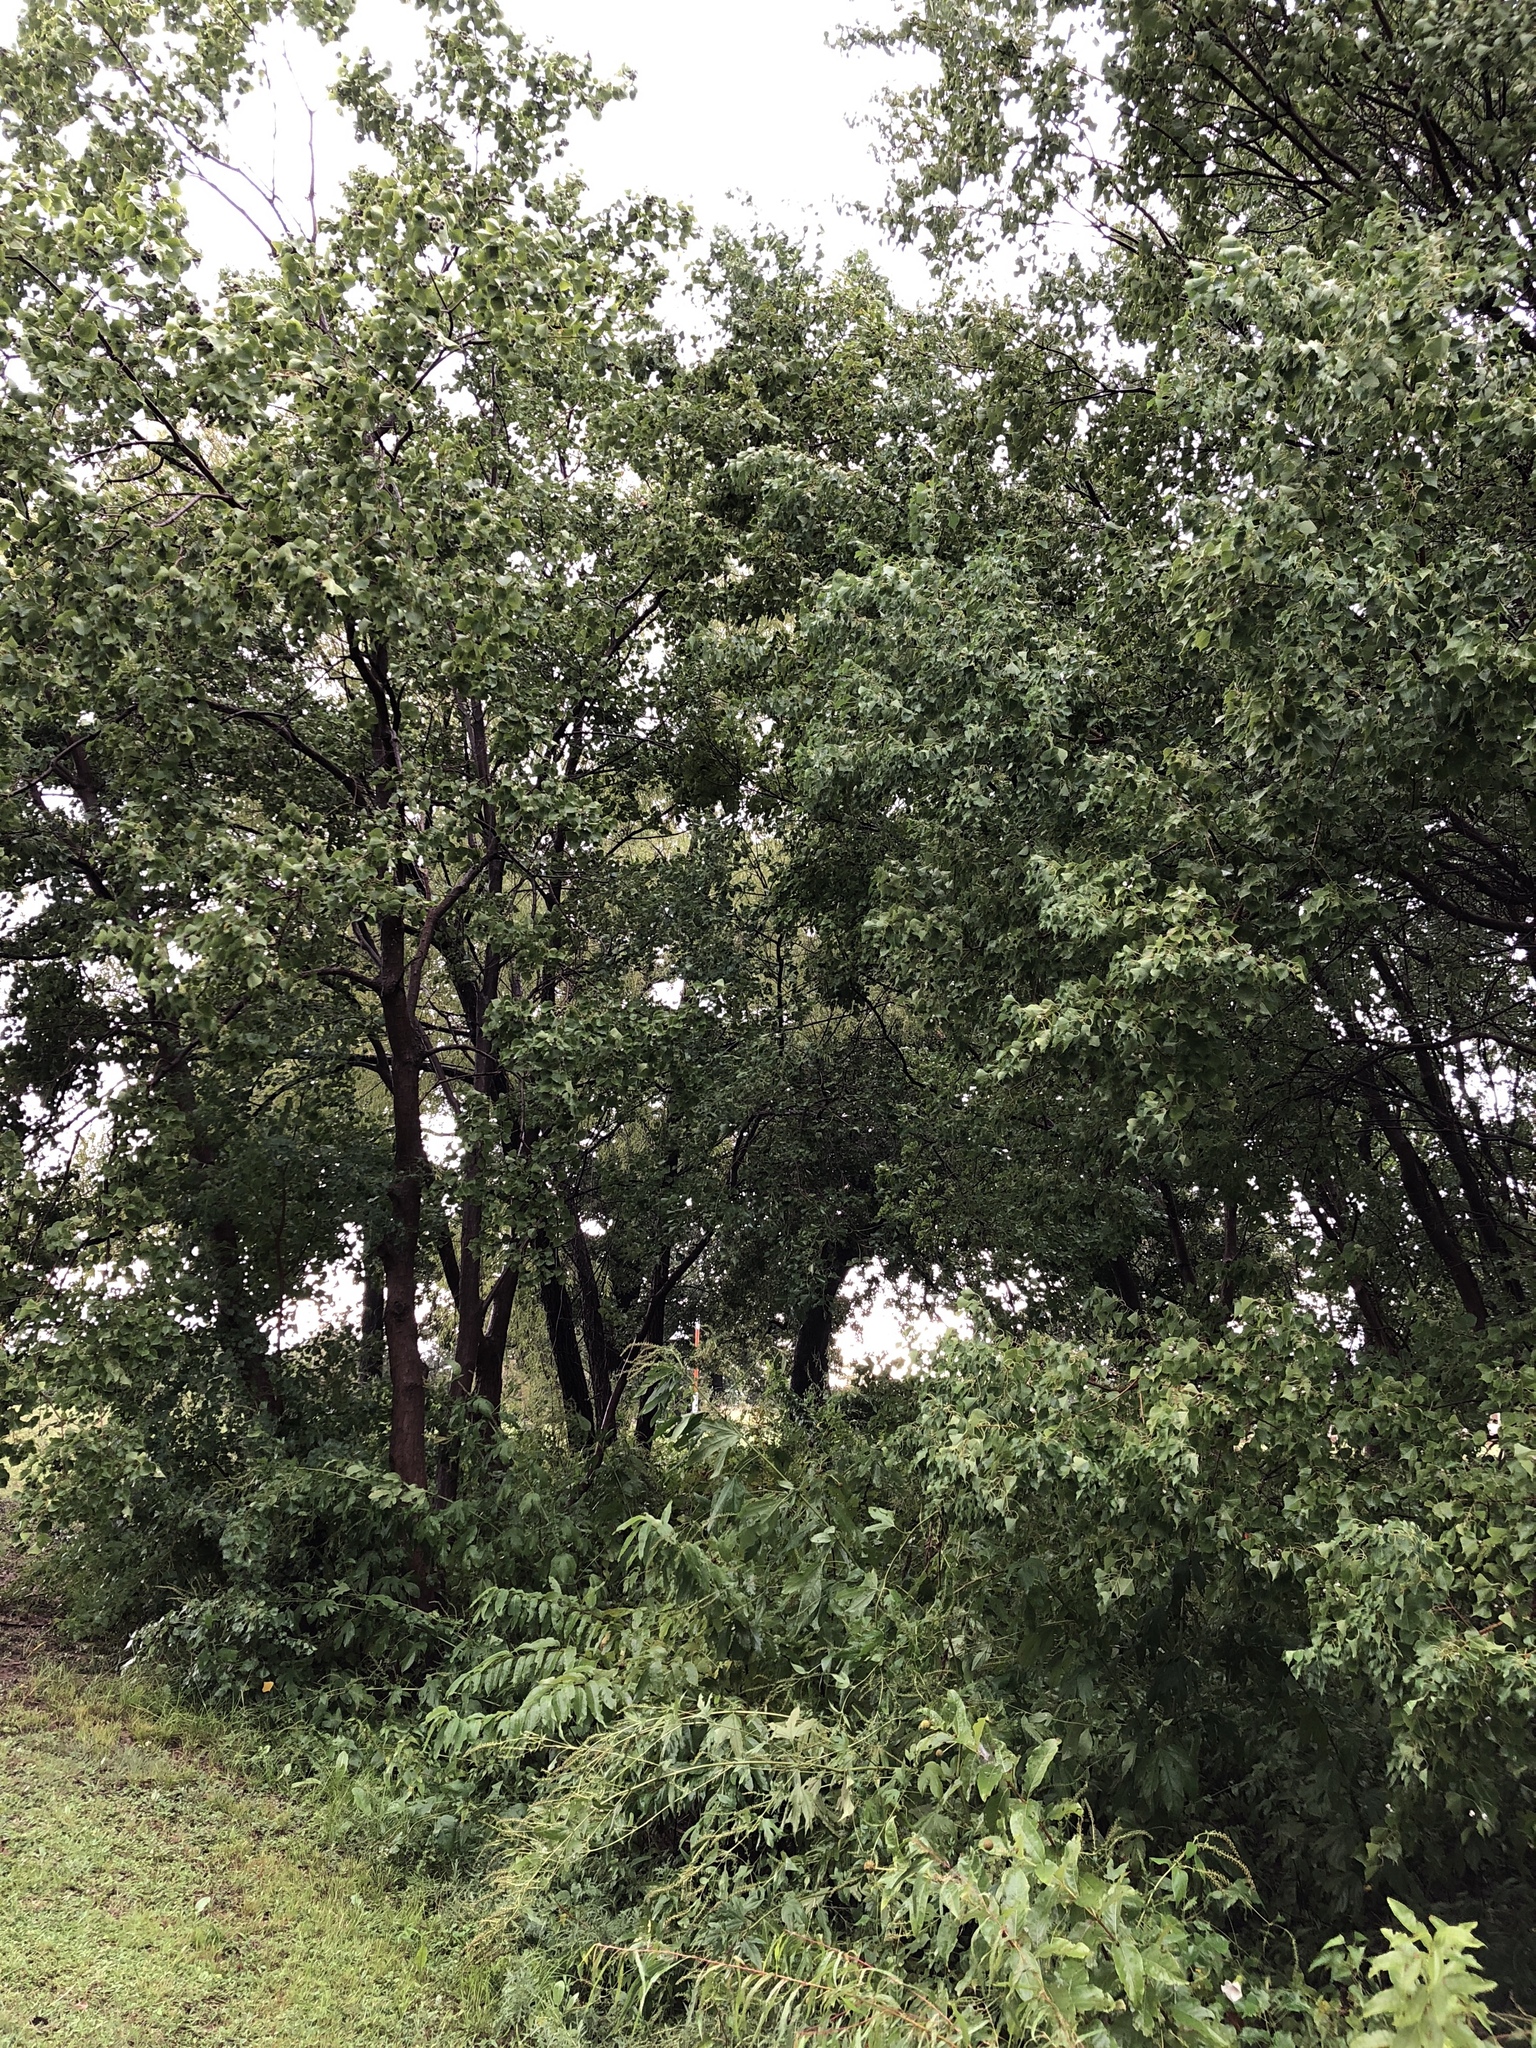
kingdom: Plantae
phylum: Tracheophyta
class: Magnoliopsida
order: Malpighiales
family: Euphorbiaceae
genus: Triadica
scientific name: Triadica sebifera
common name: Chinese tallow
